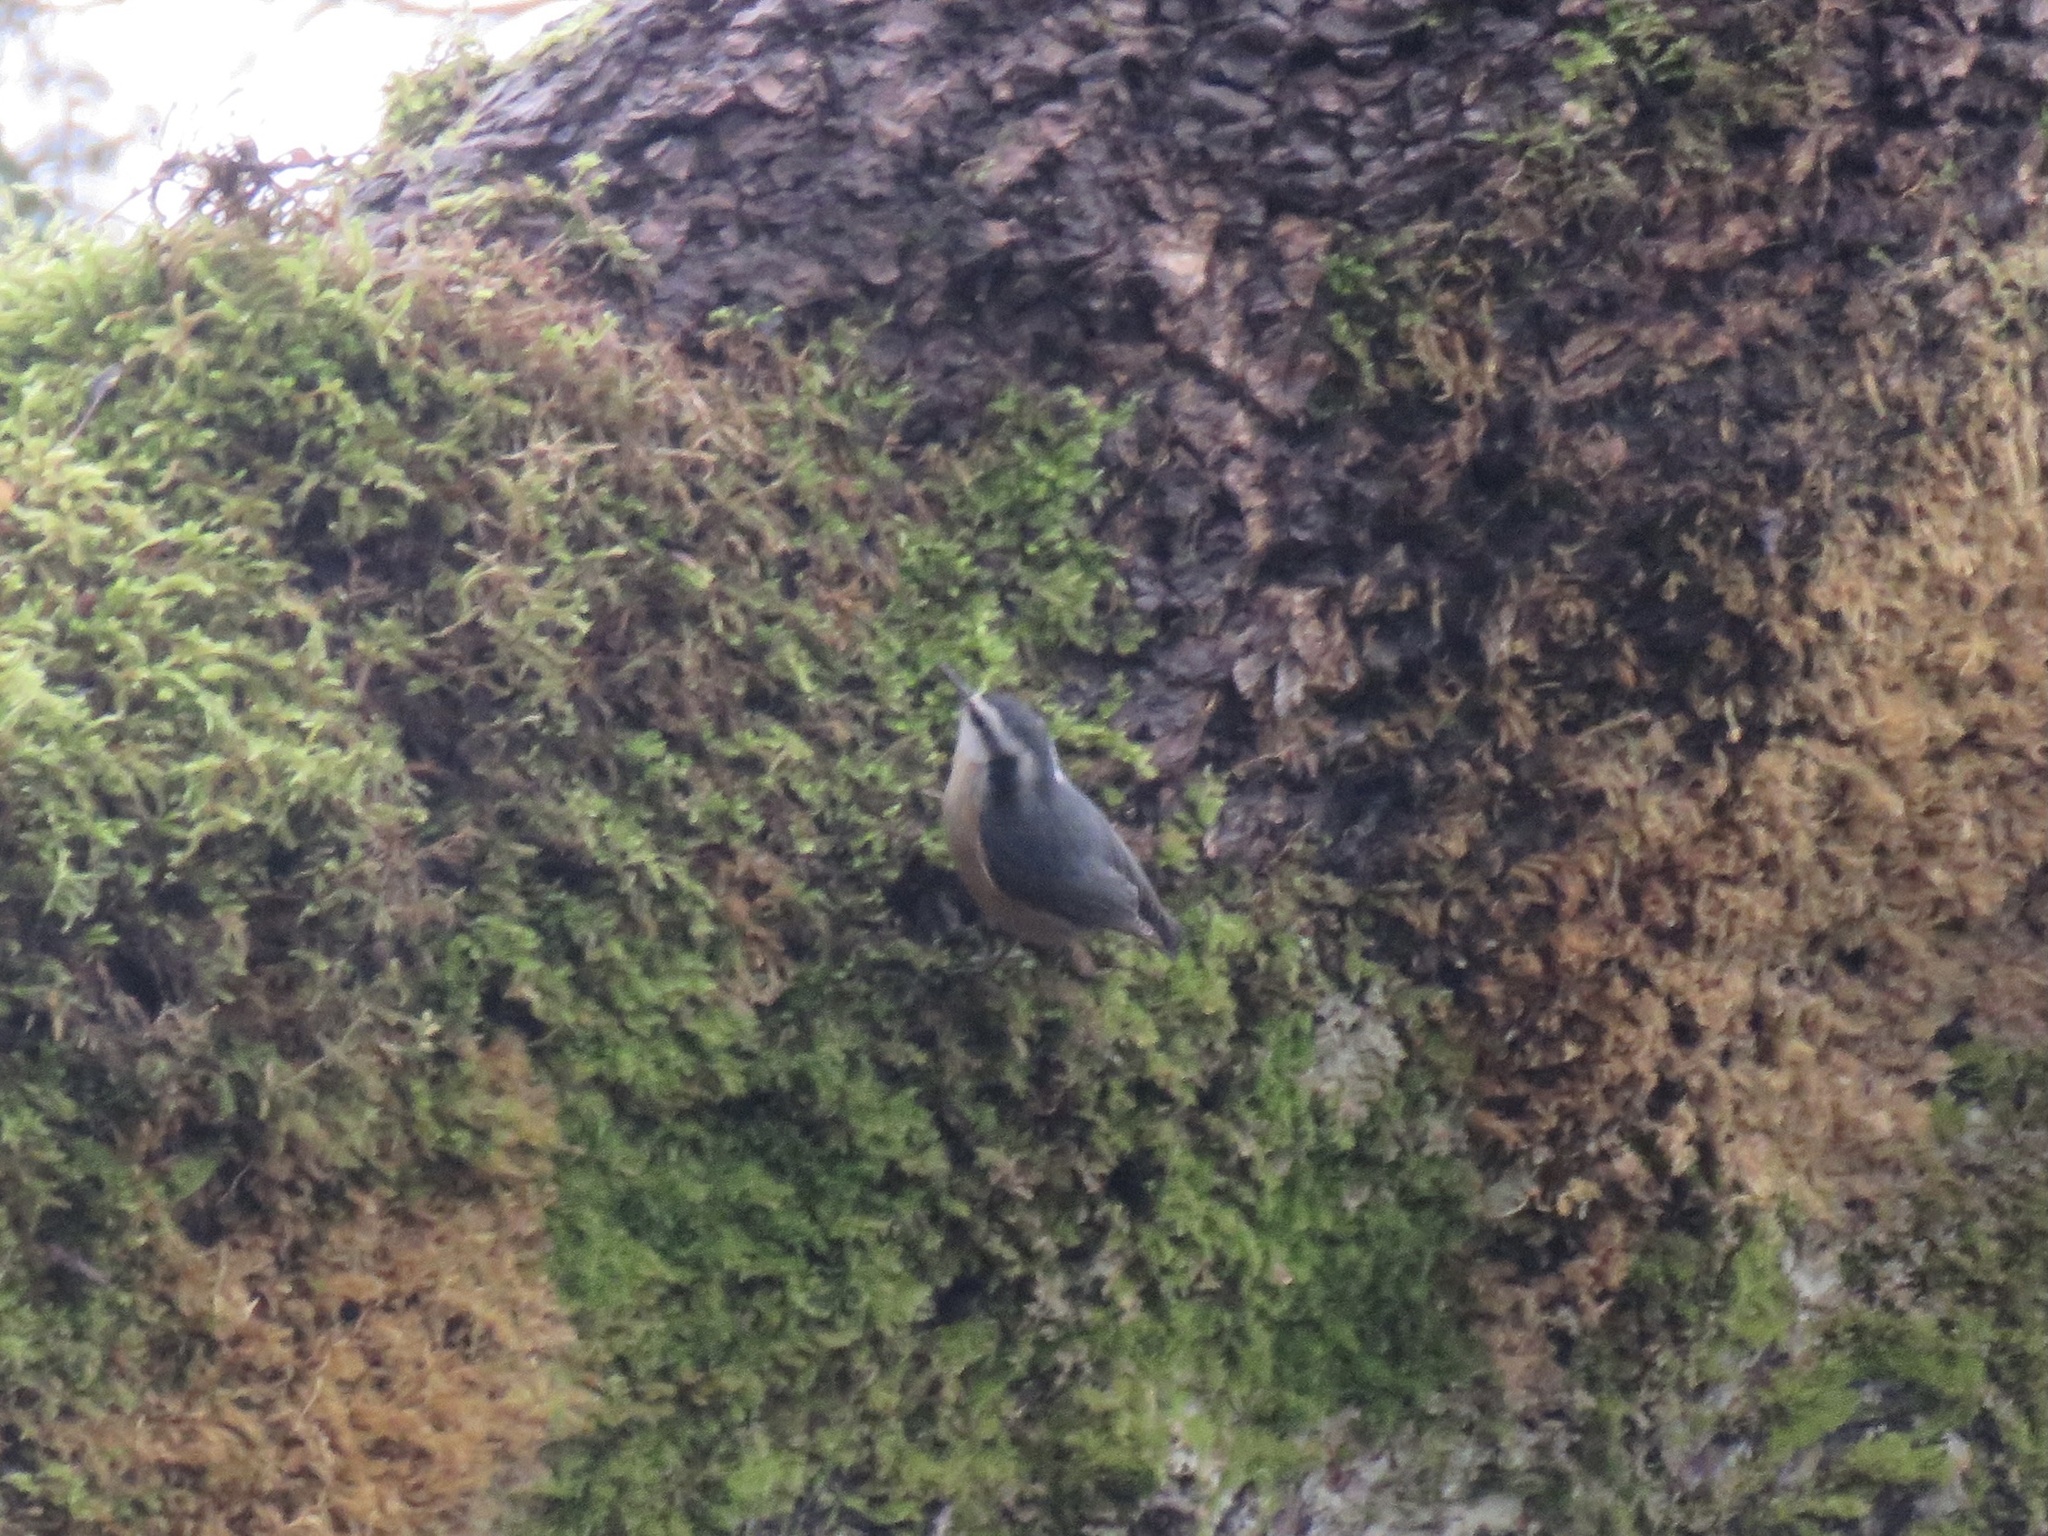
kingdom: Animalia
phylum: Chordata
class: Aves
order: Passeriformes
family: Sittidae
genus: Sitta
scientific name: Sitta canadensis
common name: Red-breasted nuthatch
